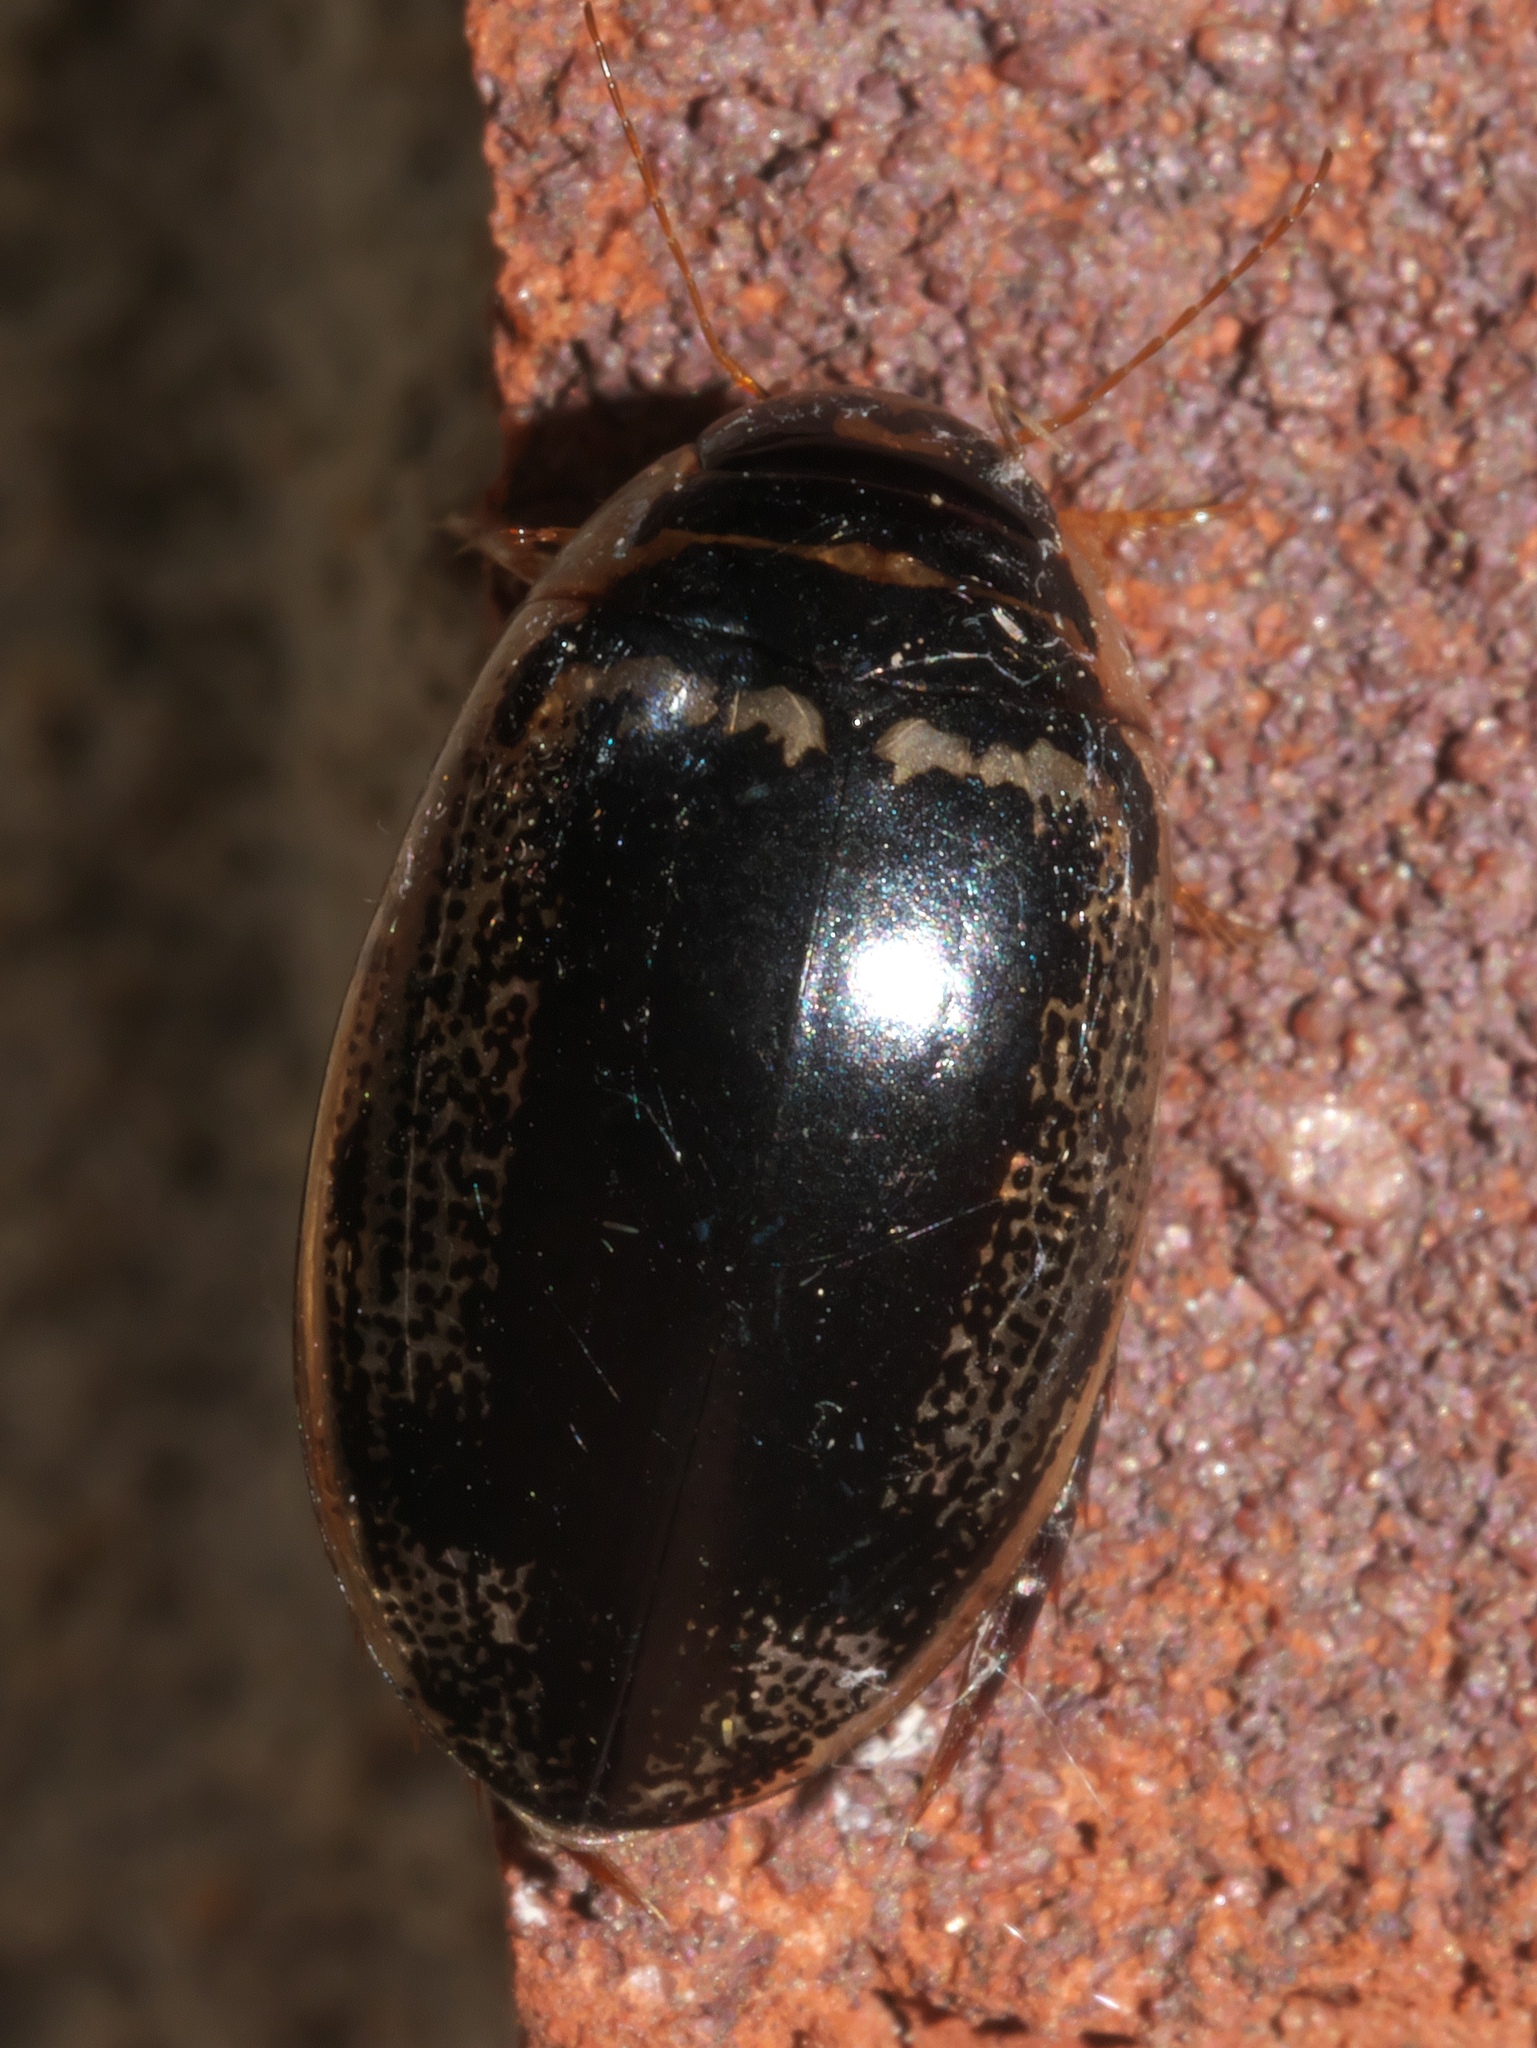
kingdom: Animalia
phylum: Arthropoda
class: Insecta
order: Coleoptera
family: Dytiscidae
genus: Thermonectus
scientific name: Thermonectus basillaris
